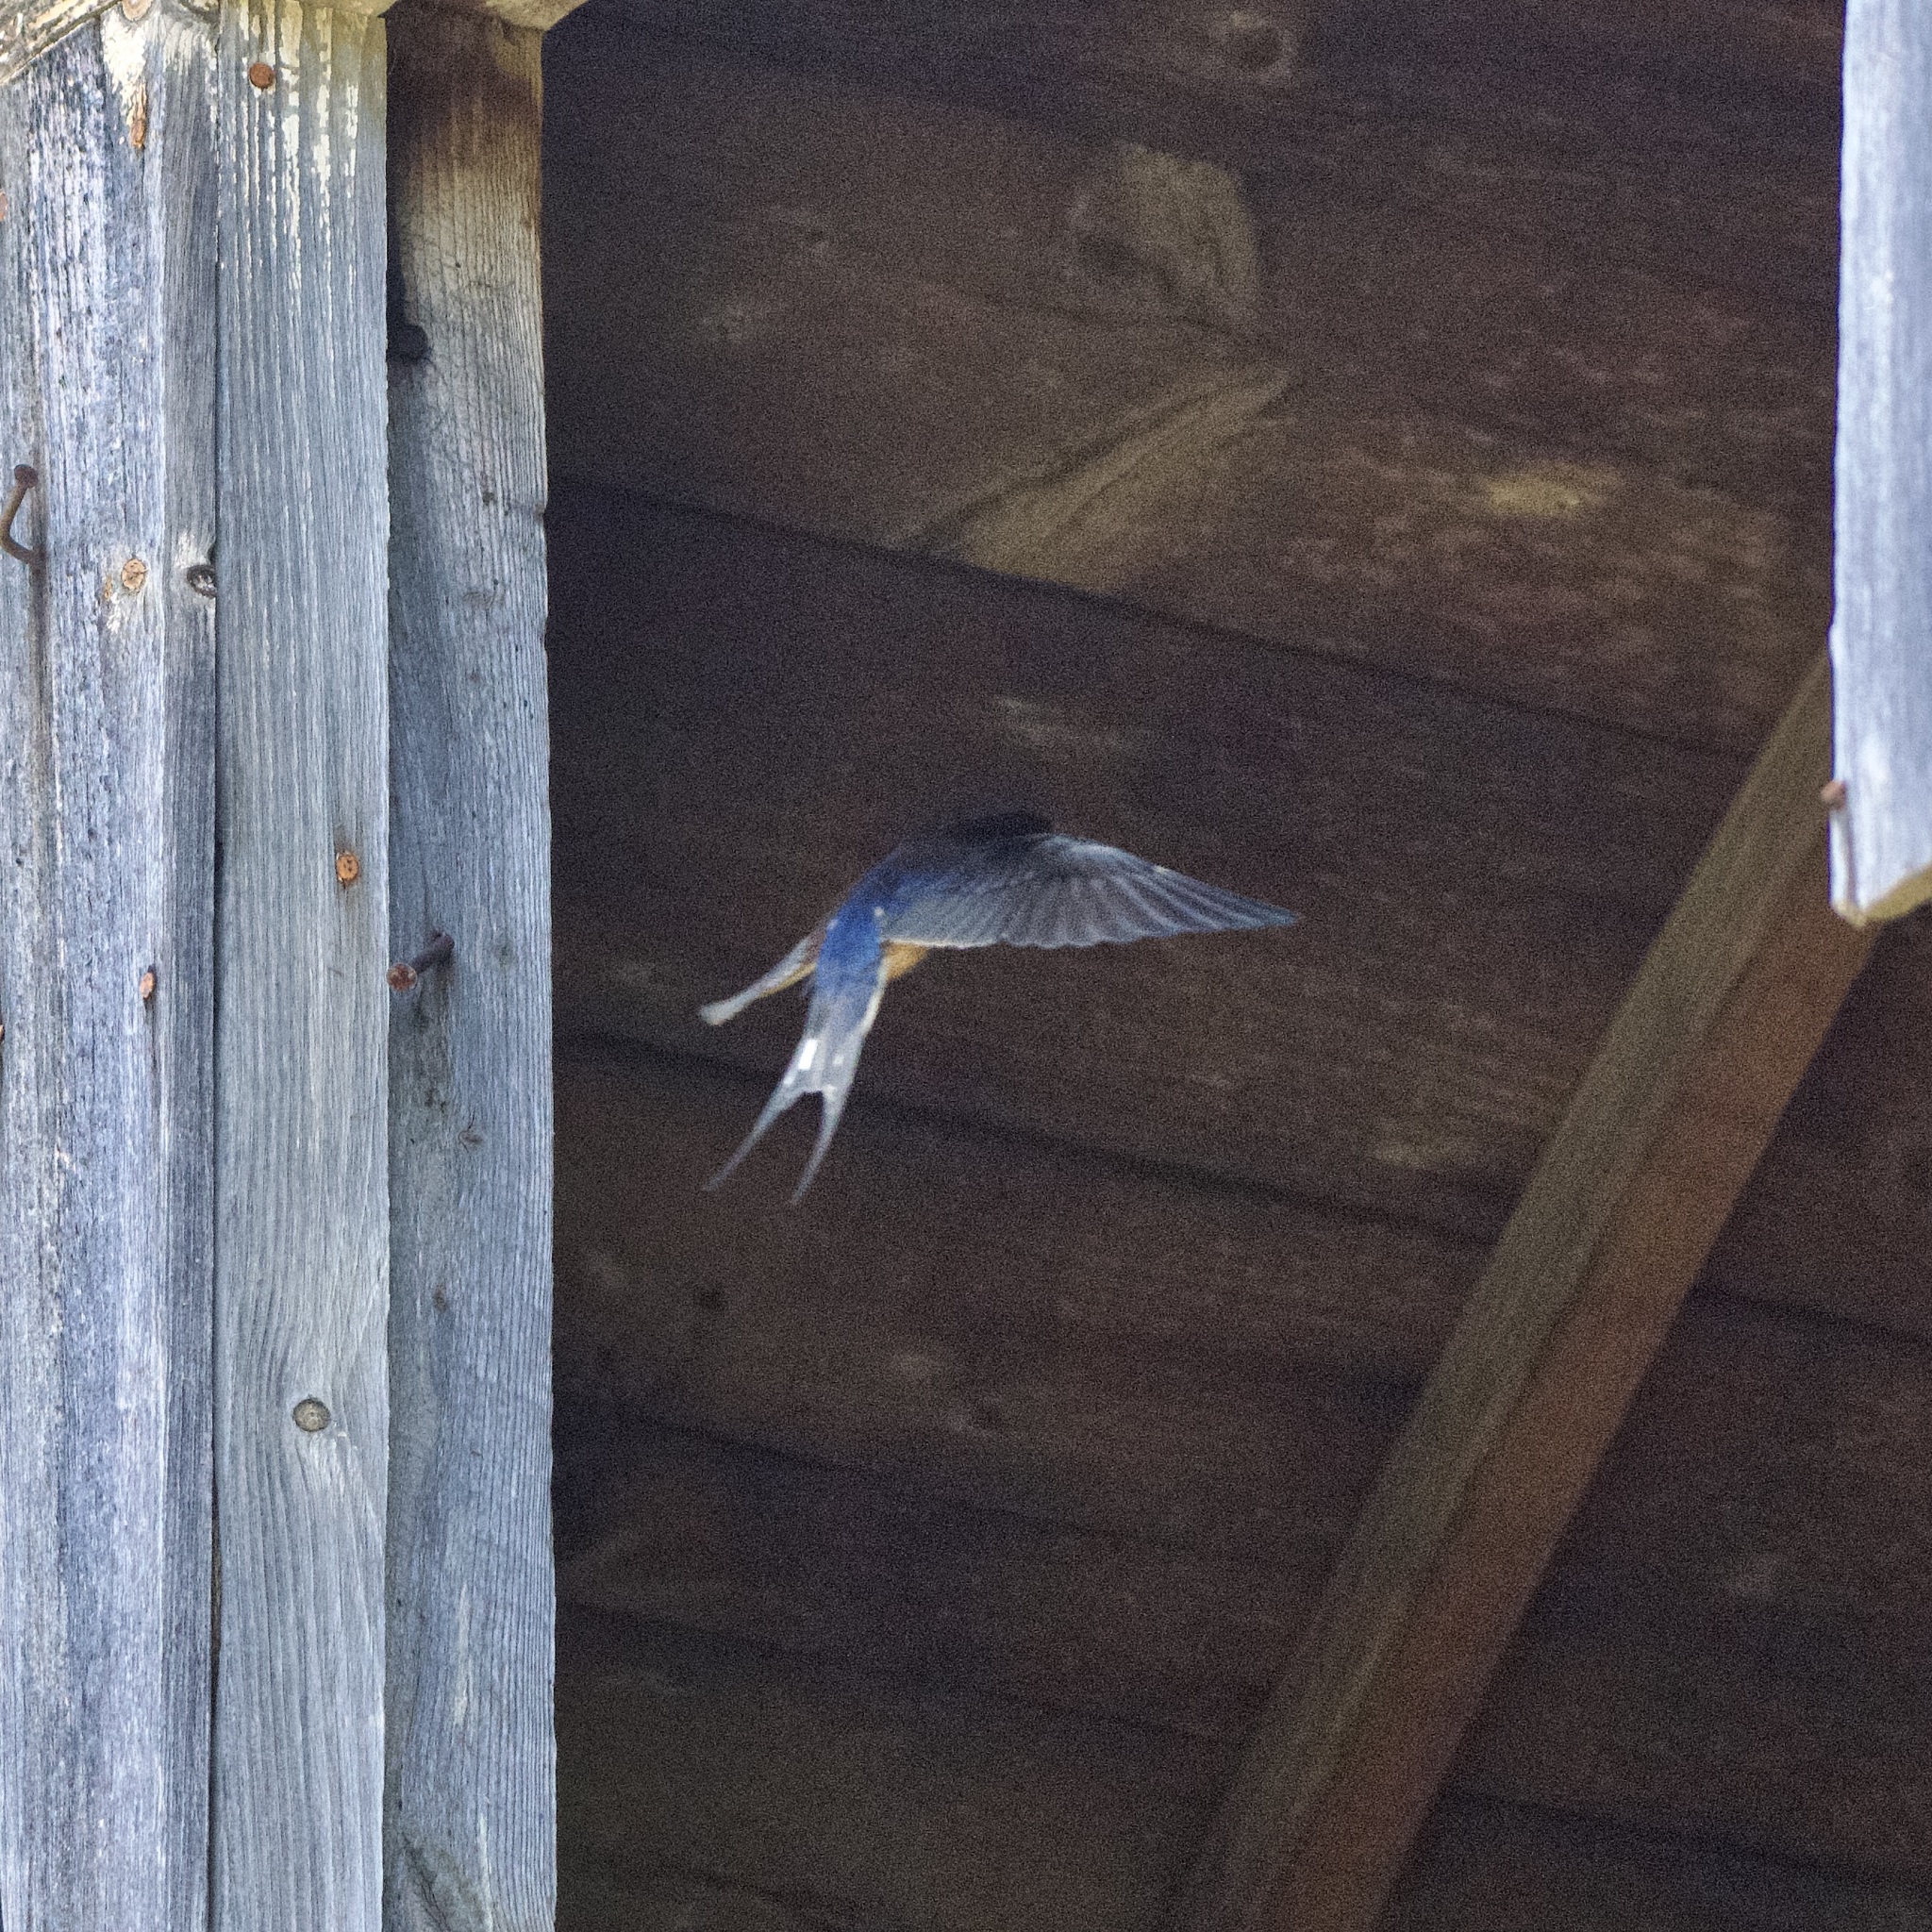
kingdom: Animalia
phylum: Chordata
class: Aves
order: Passeriformes
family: Hirundinidae
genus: Hirundo
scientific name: Hirundo rustica
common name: Barn swallow
